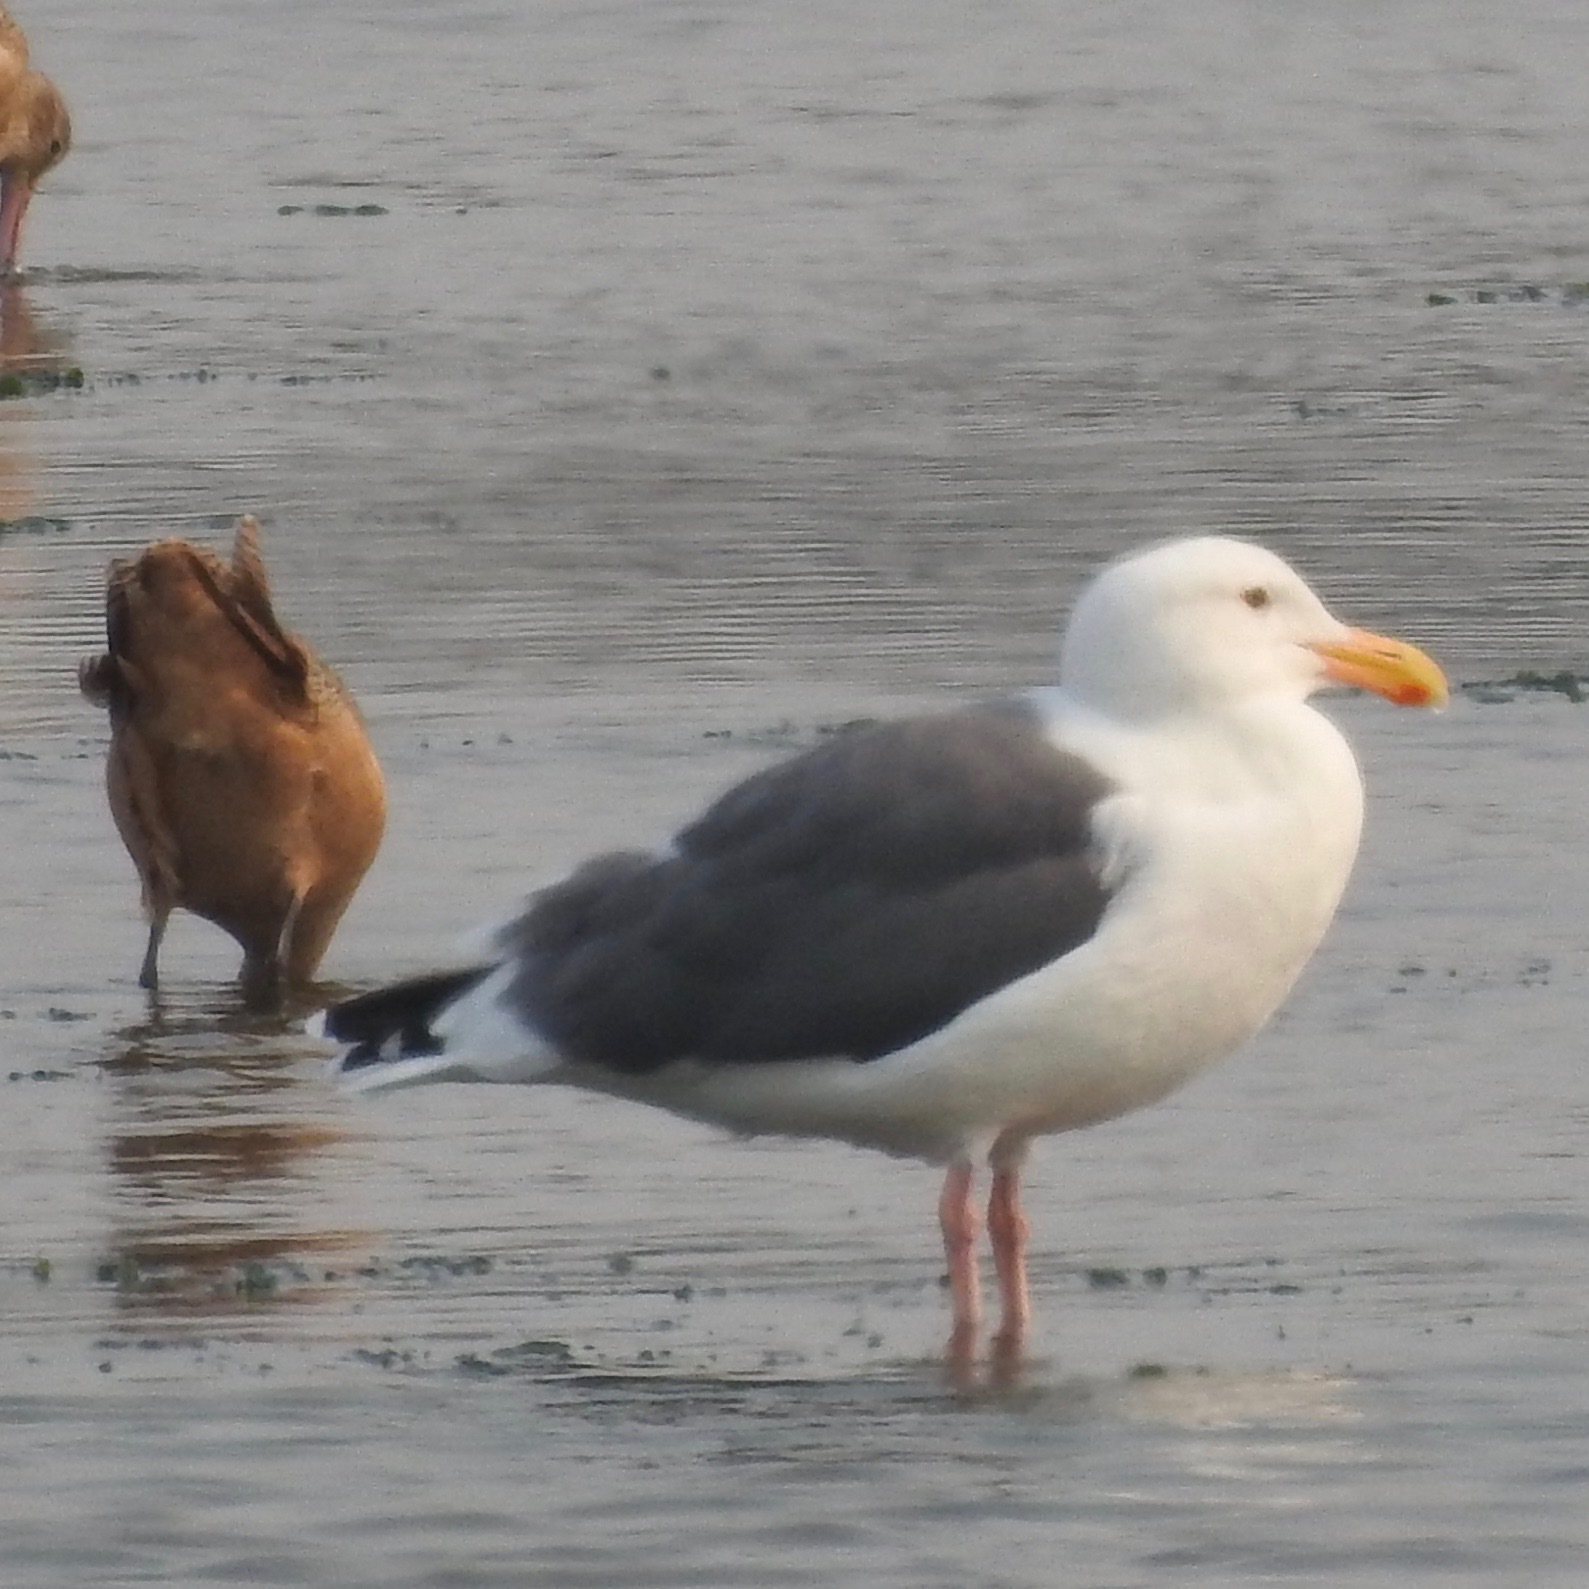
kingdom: Animalia
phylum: Chordata
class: Aves
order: Charadriiformes
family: Laridae
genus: Larus
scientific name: Larus occidentalis
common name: Western gull
